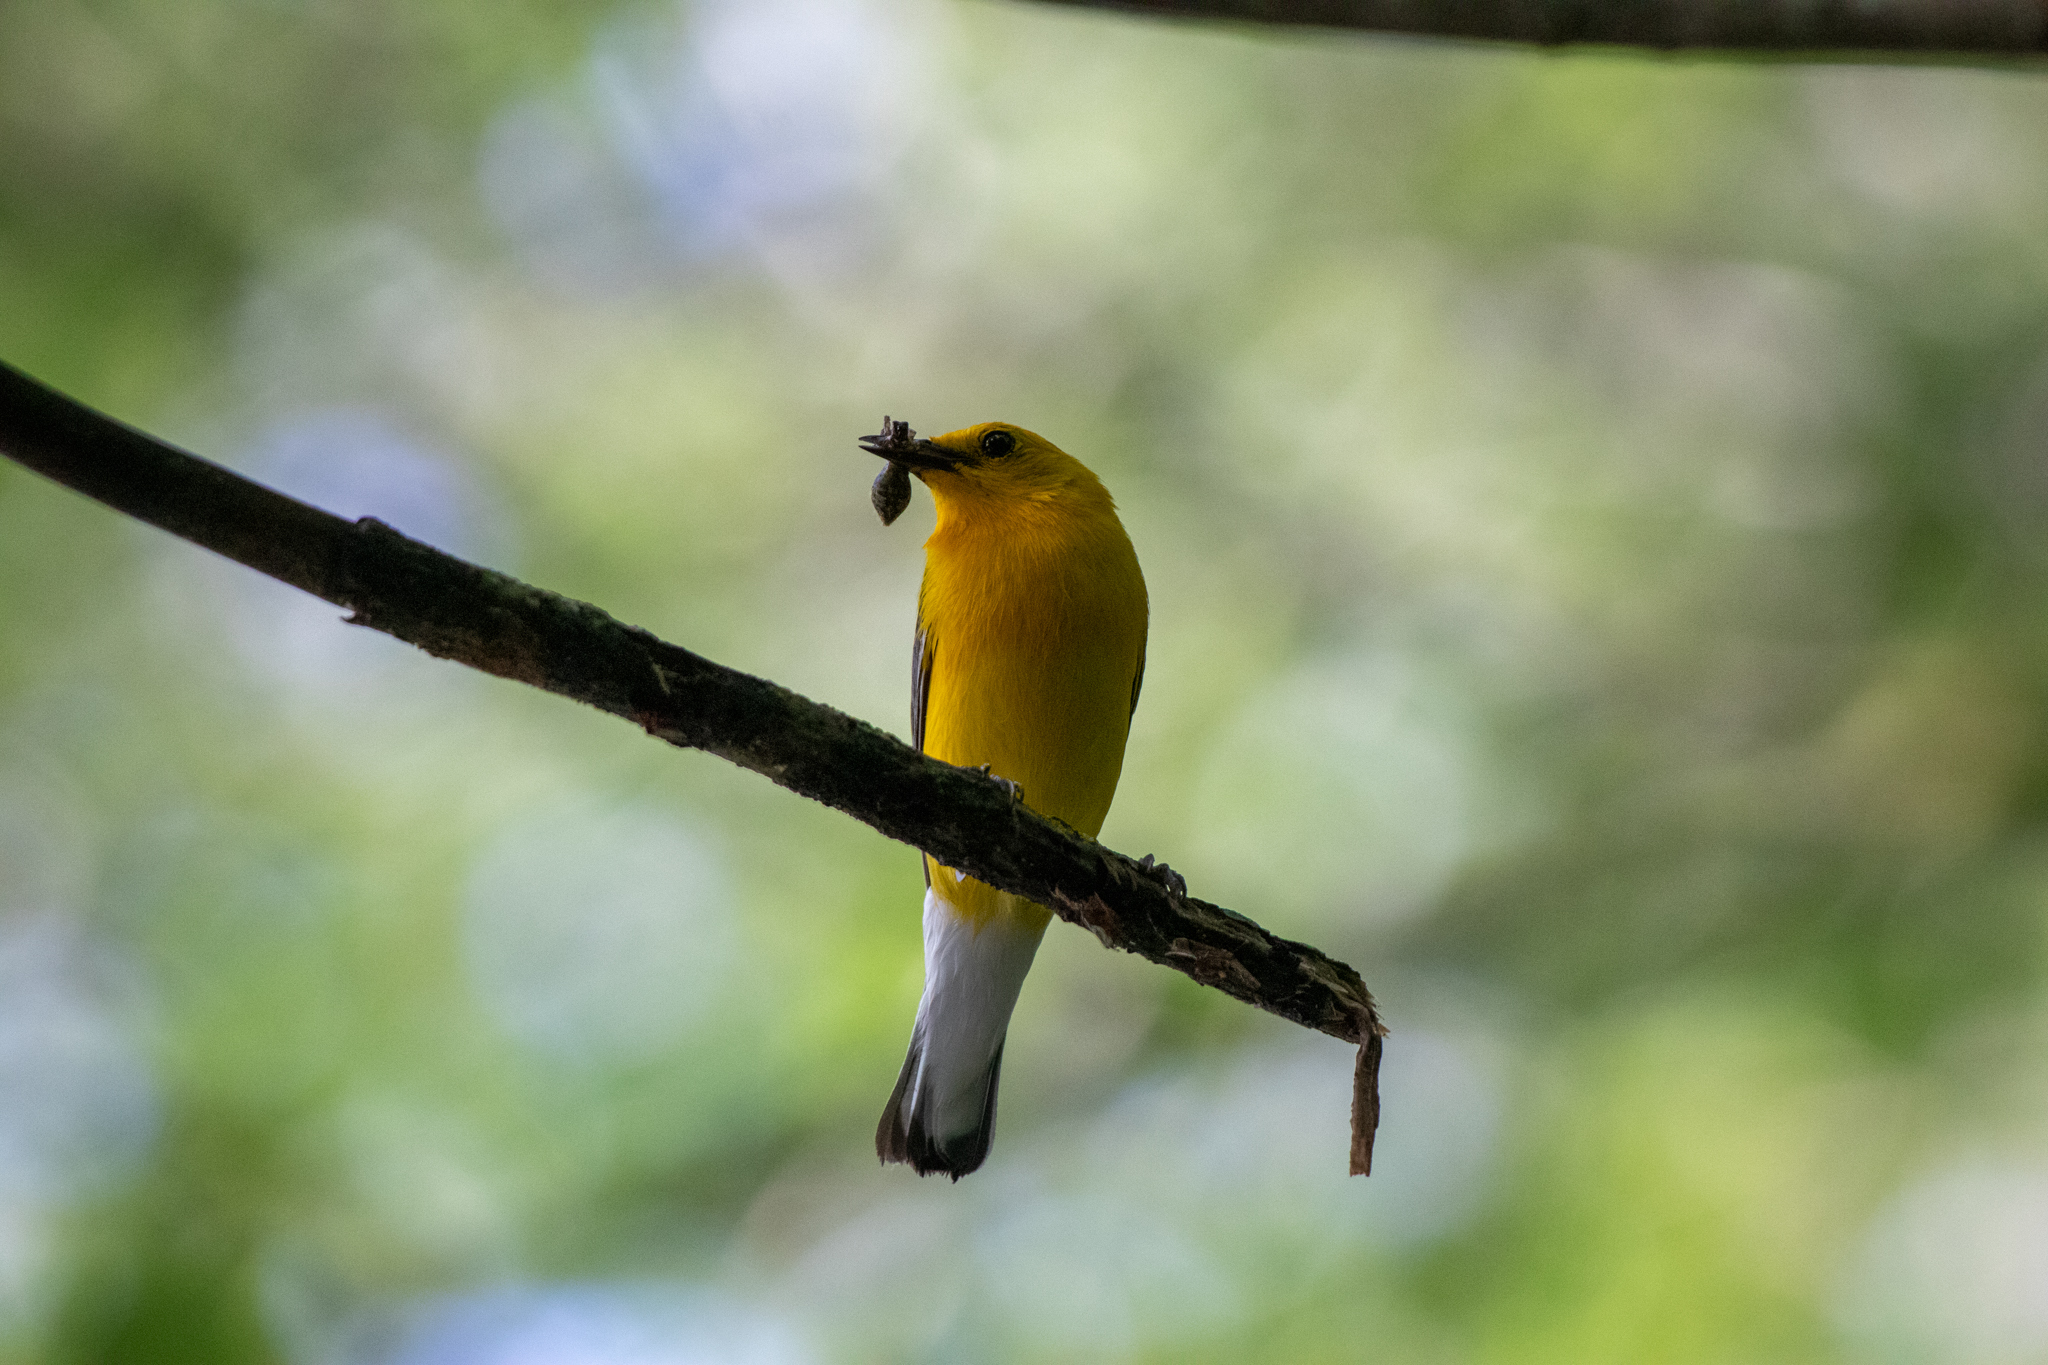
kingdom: Animalia
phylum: Chordata
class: Aves
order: Passeriformes
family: Parulidae
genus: Protonotaria
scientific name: Protonotaria citrea
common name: Prothonotary warbler
